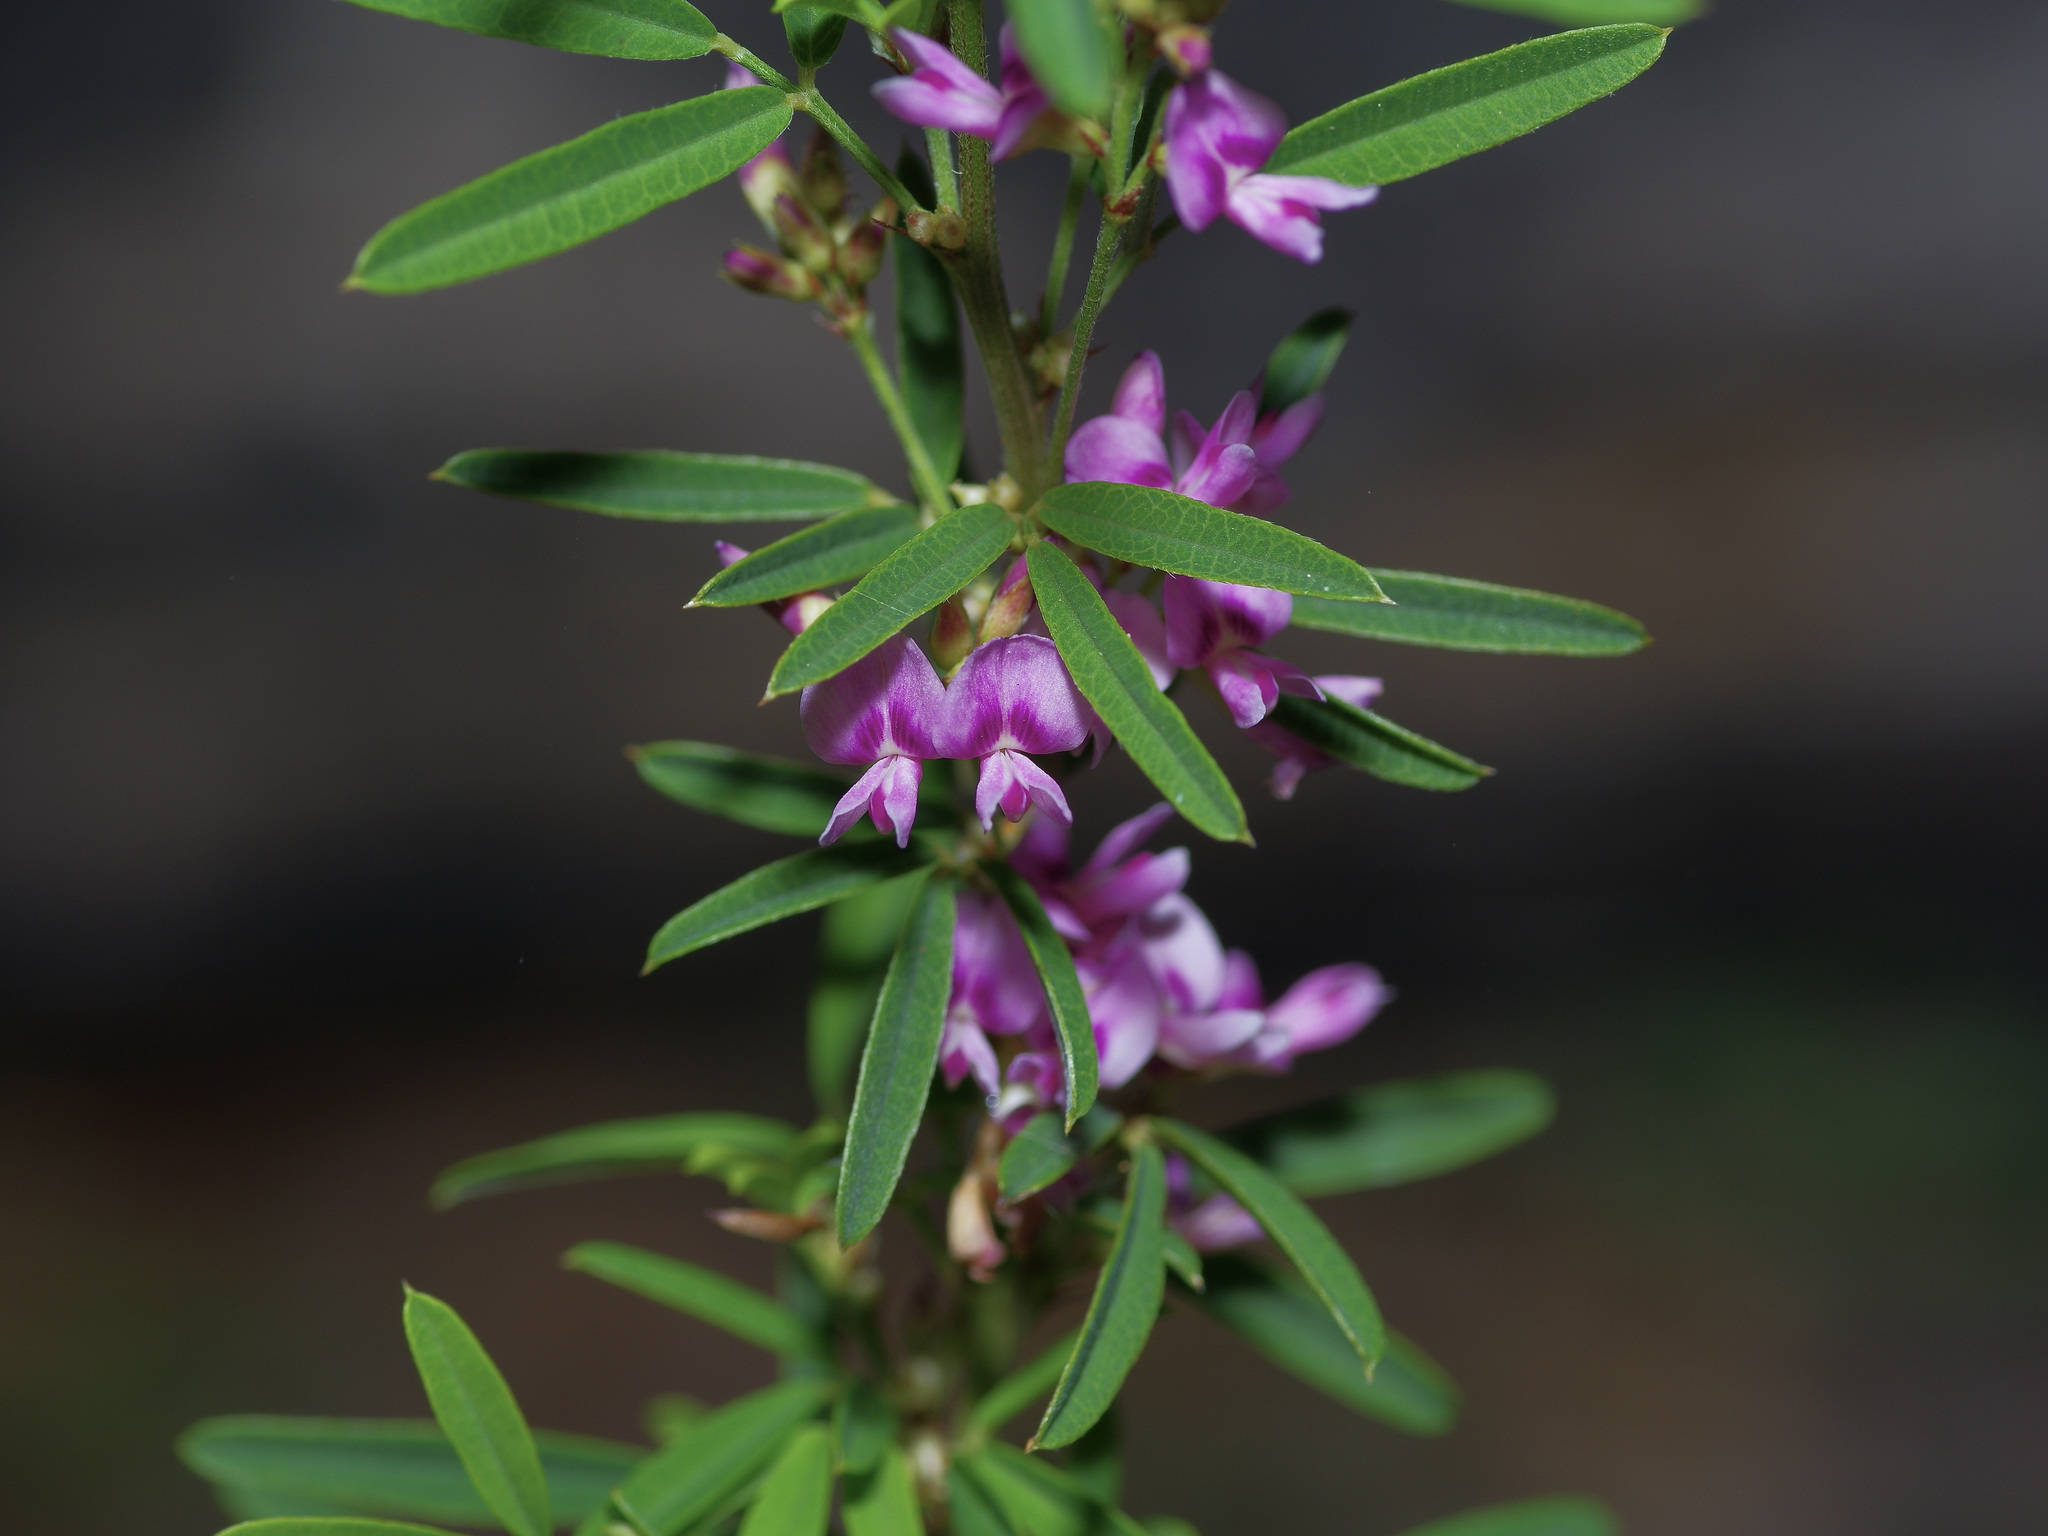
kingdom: Plantae
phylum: Tracheophyta
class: Magnoliopsida
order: Fabales
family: Fabaceae
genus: Lespedeza
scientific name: Lespedeza virginica
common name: Slender bush-clover
